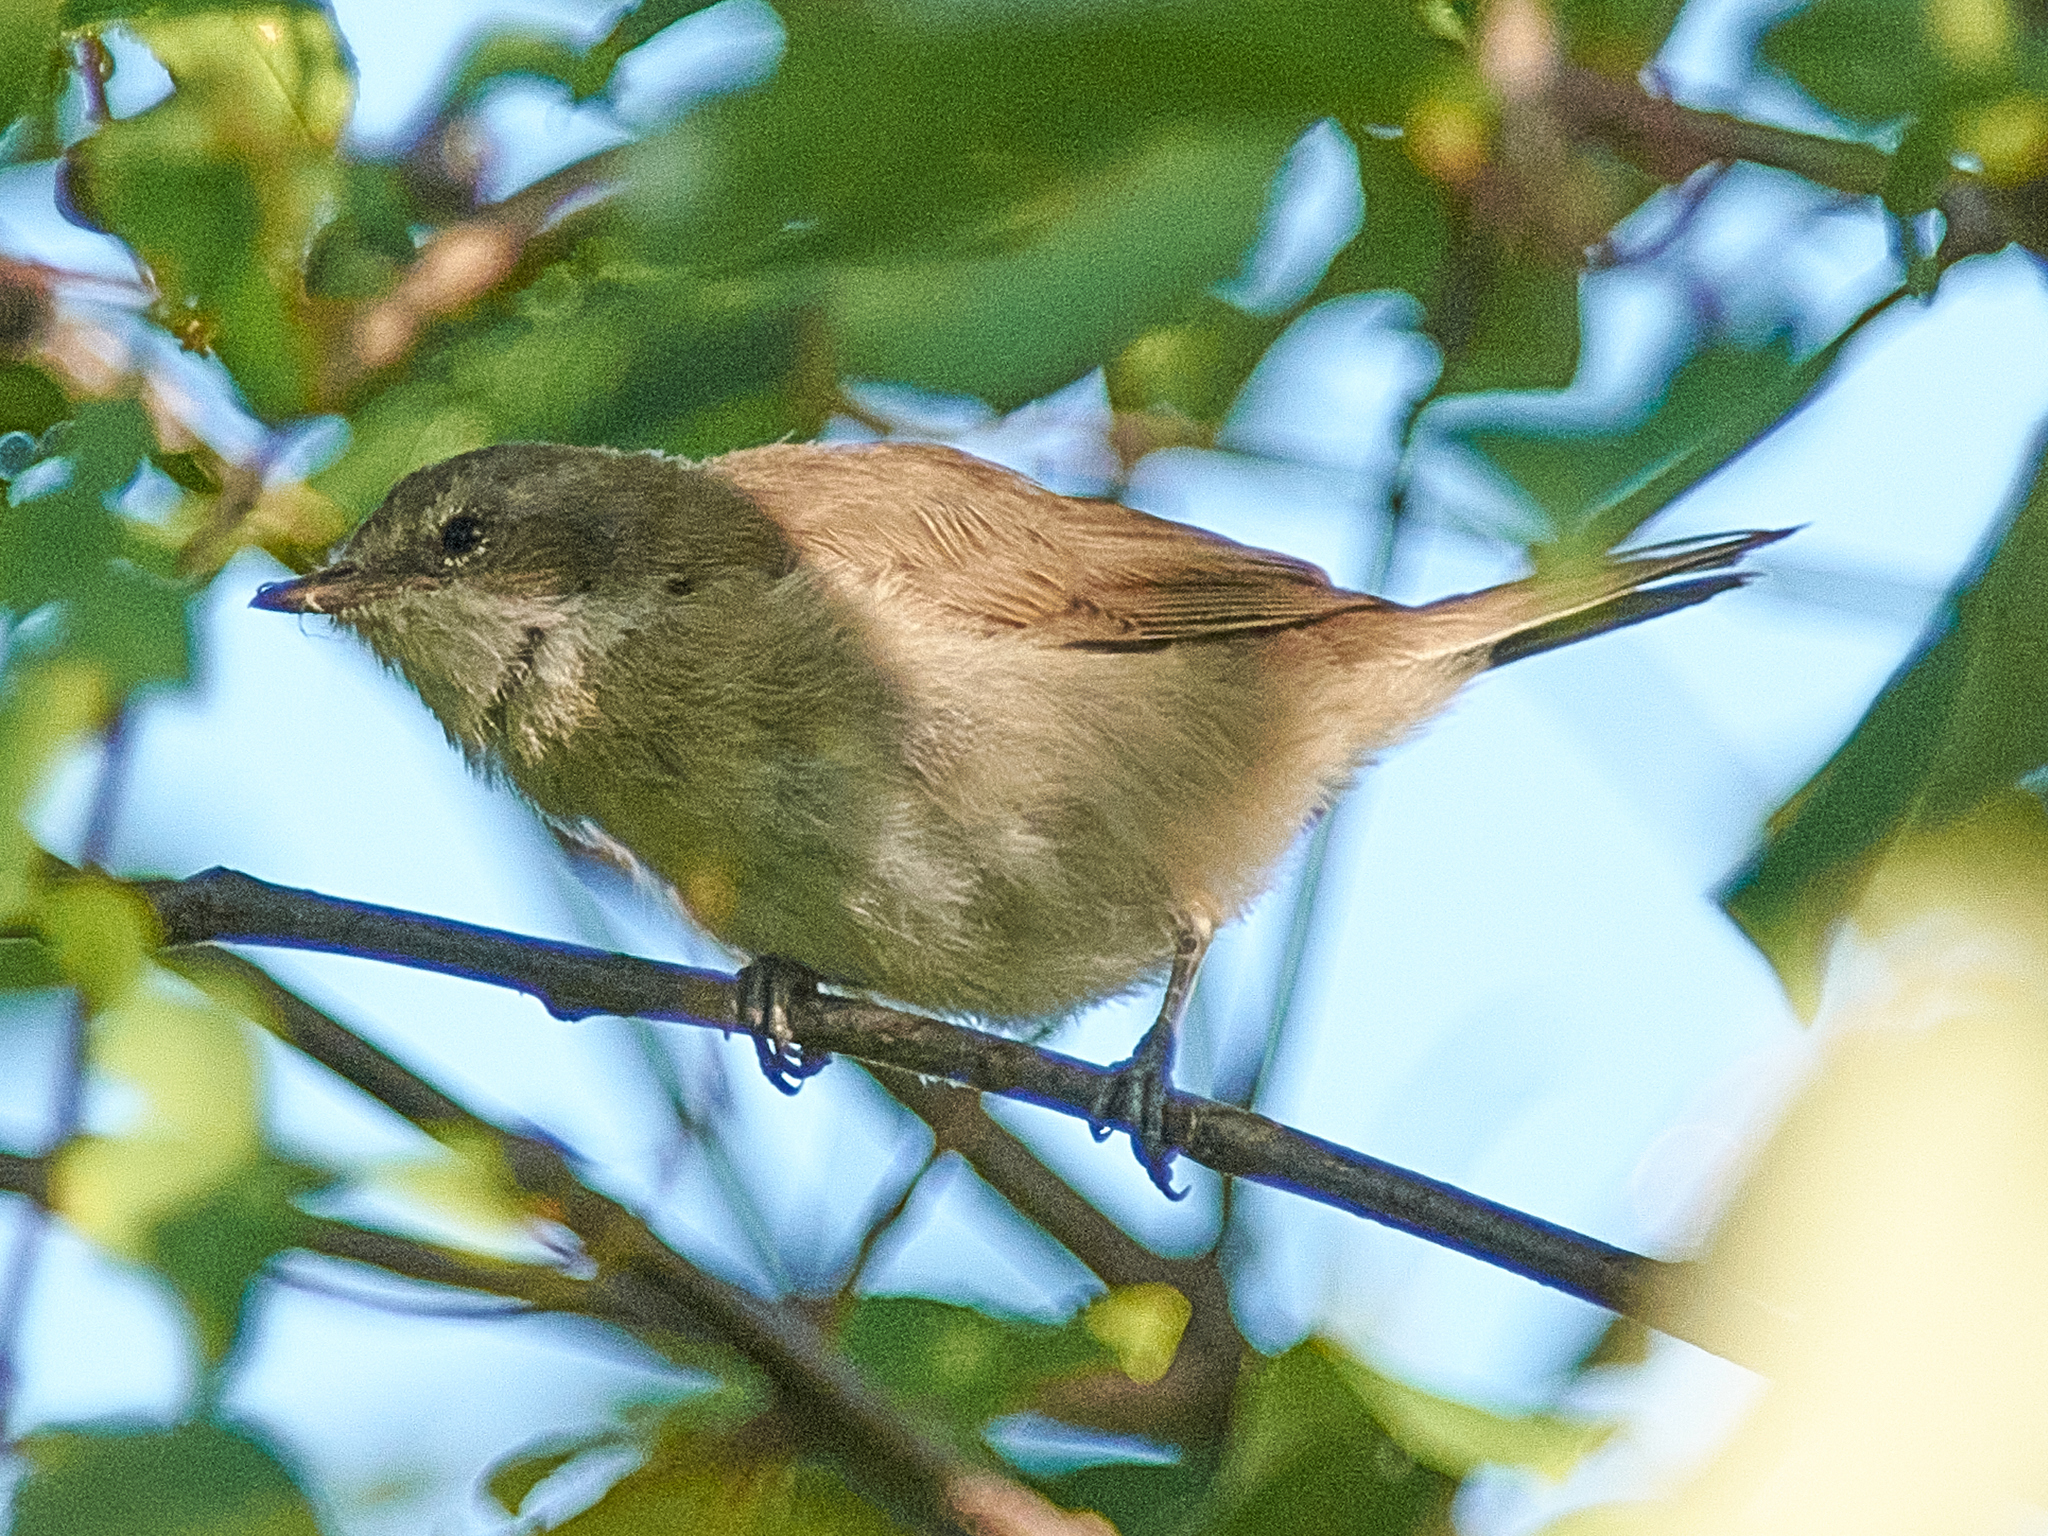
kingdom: Animalia
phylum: Chordata
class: Aves
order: Passeriformes
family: Sylviidae
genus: Sylvia
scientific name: Sylvia curruca
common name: Lesser whitethroat
